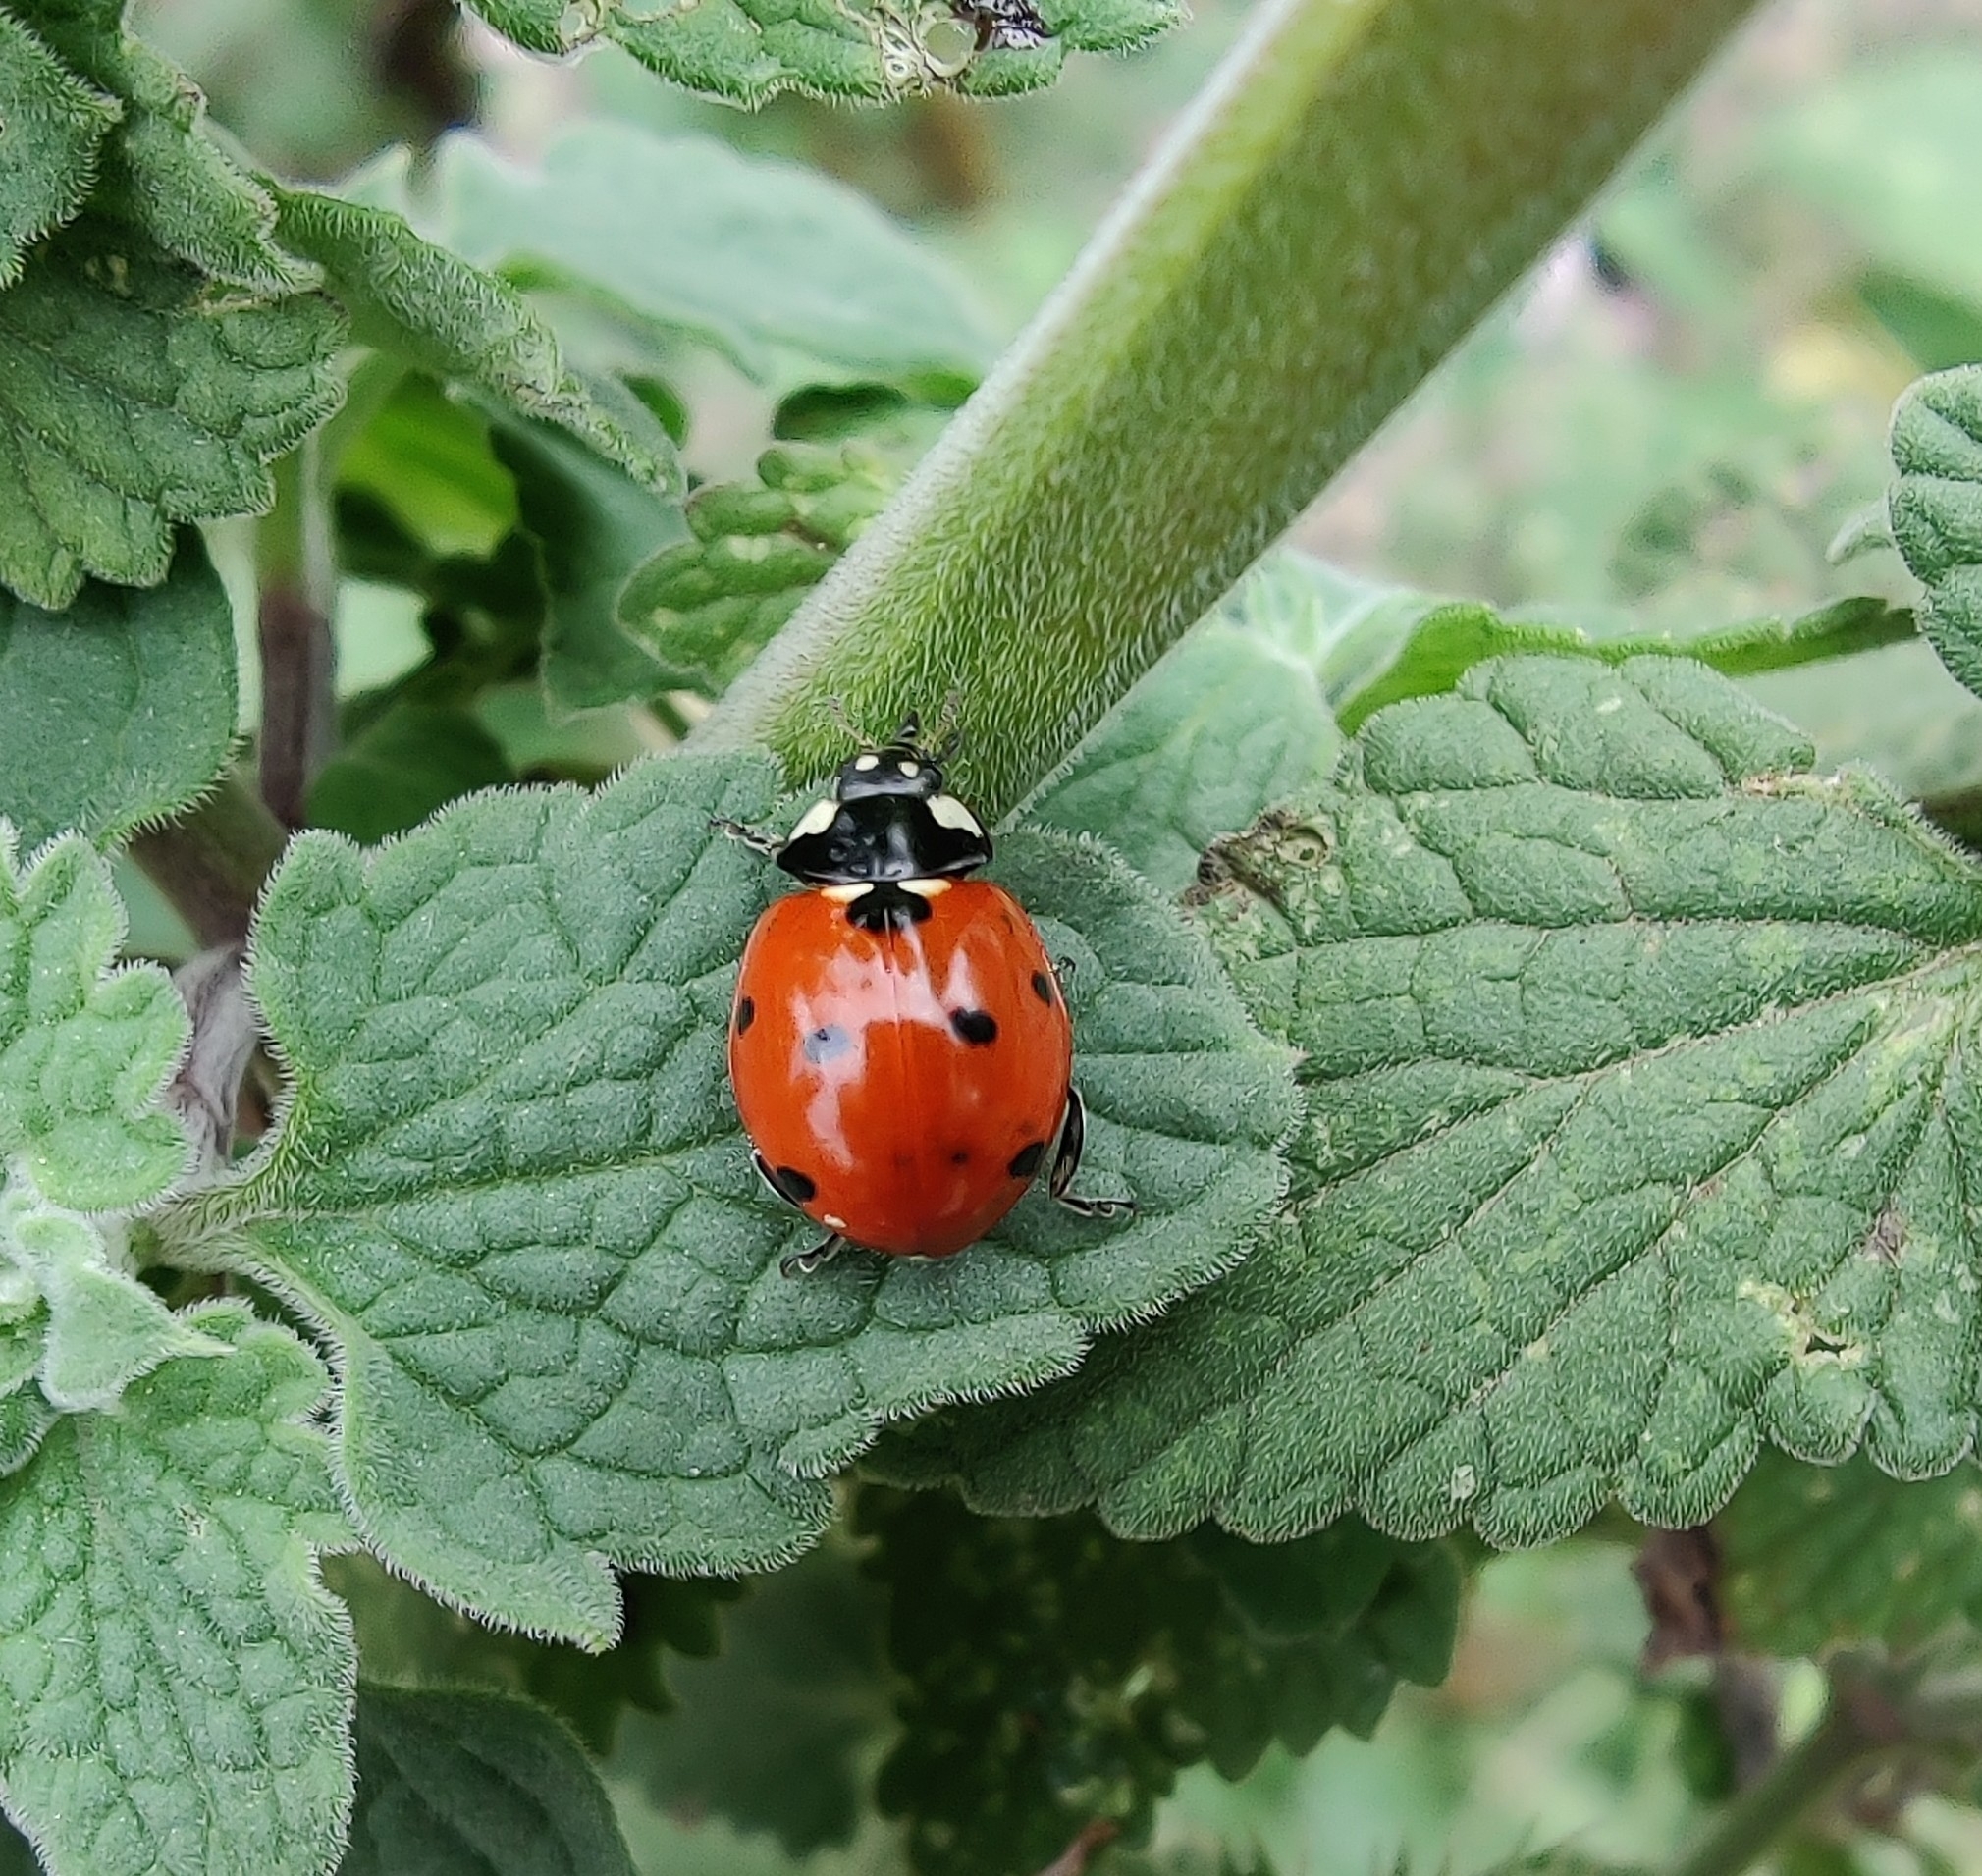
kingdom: Animalia
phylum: Arthropoda
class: Insecta
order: Coleoptera
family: Coccinellidae
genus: Coccinella
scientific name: Coccinella septempunctata
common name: Sevenspotted lady beetle
